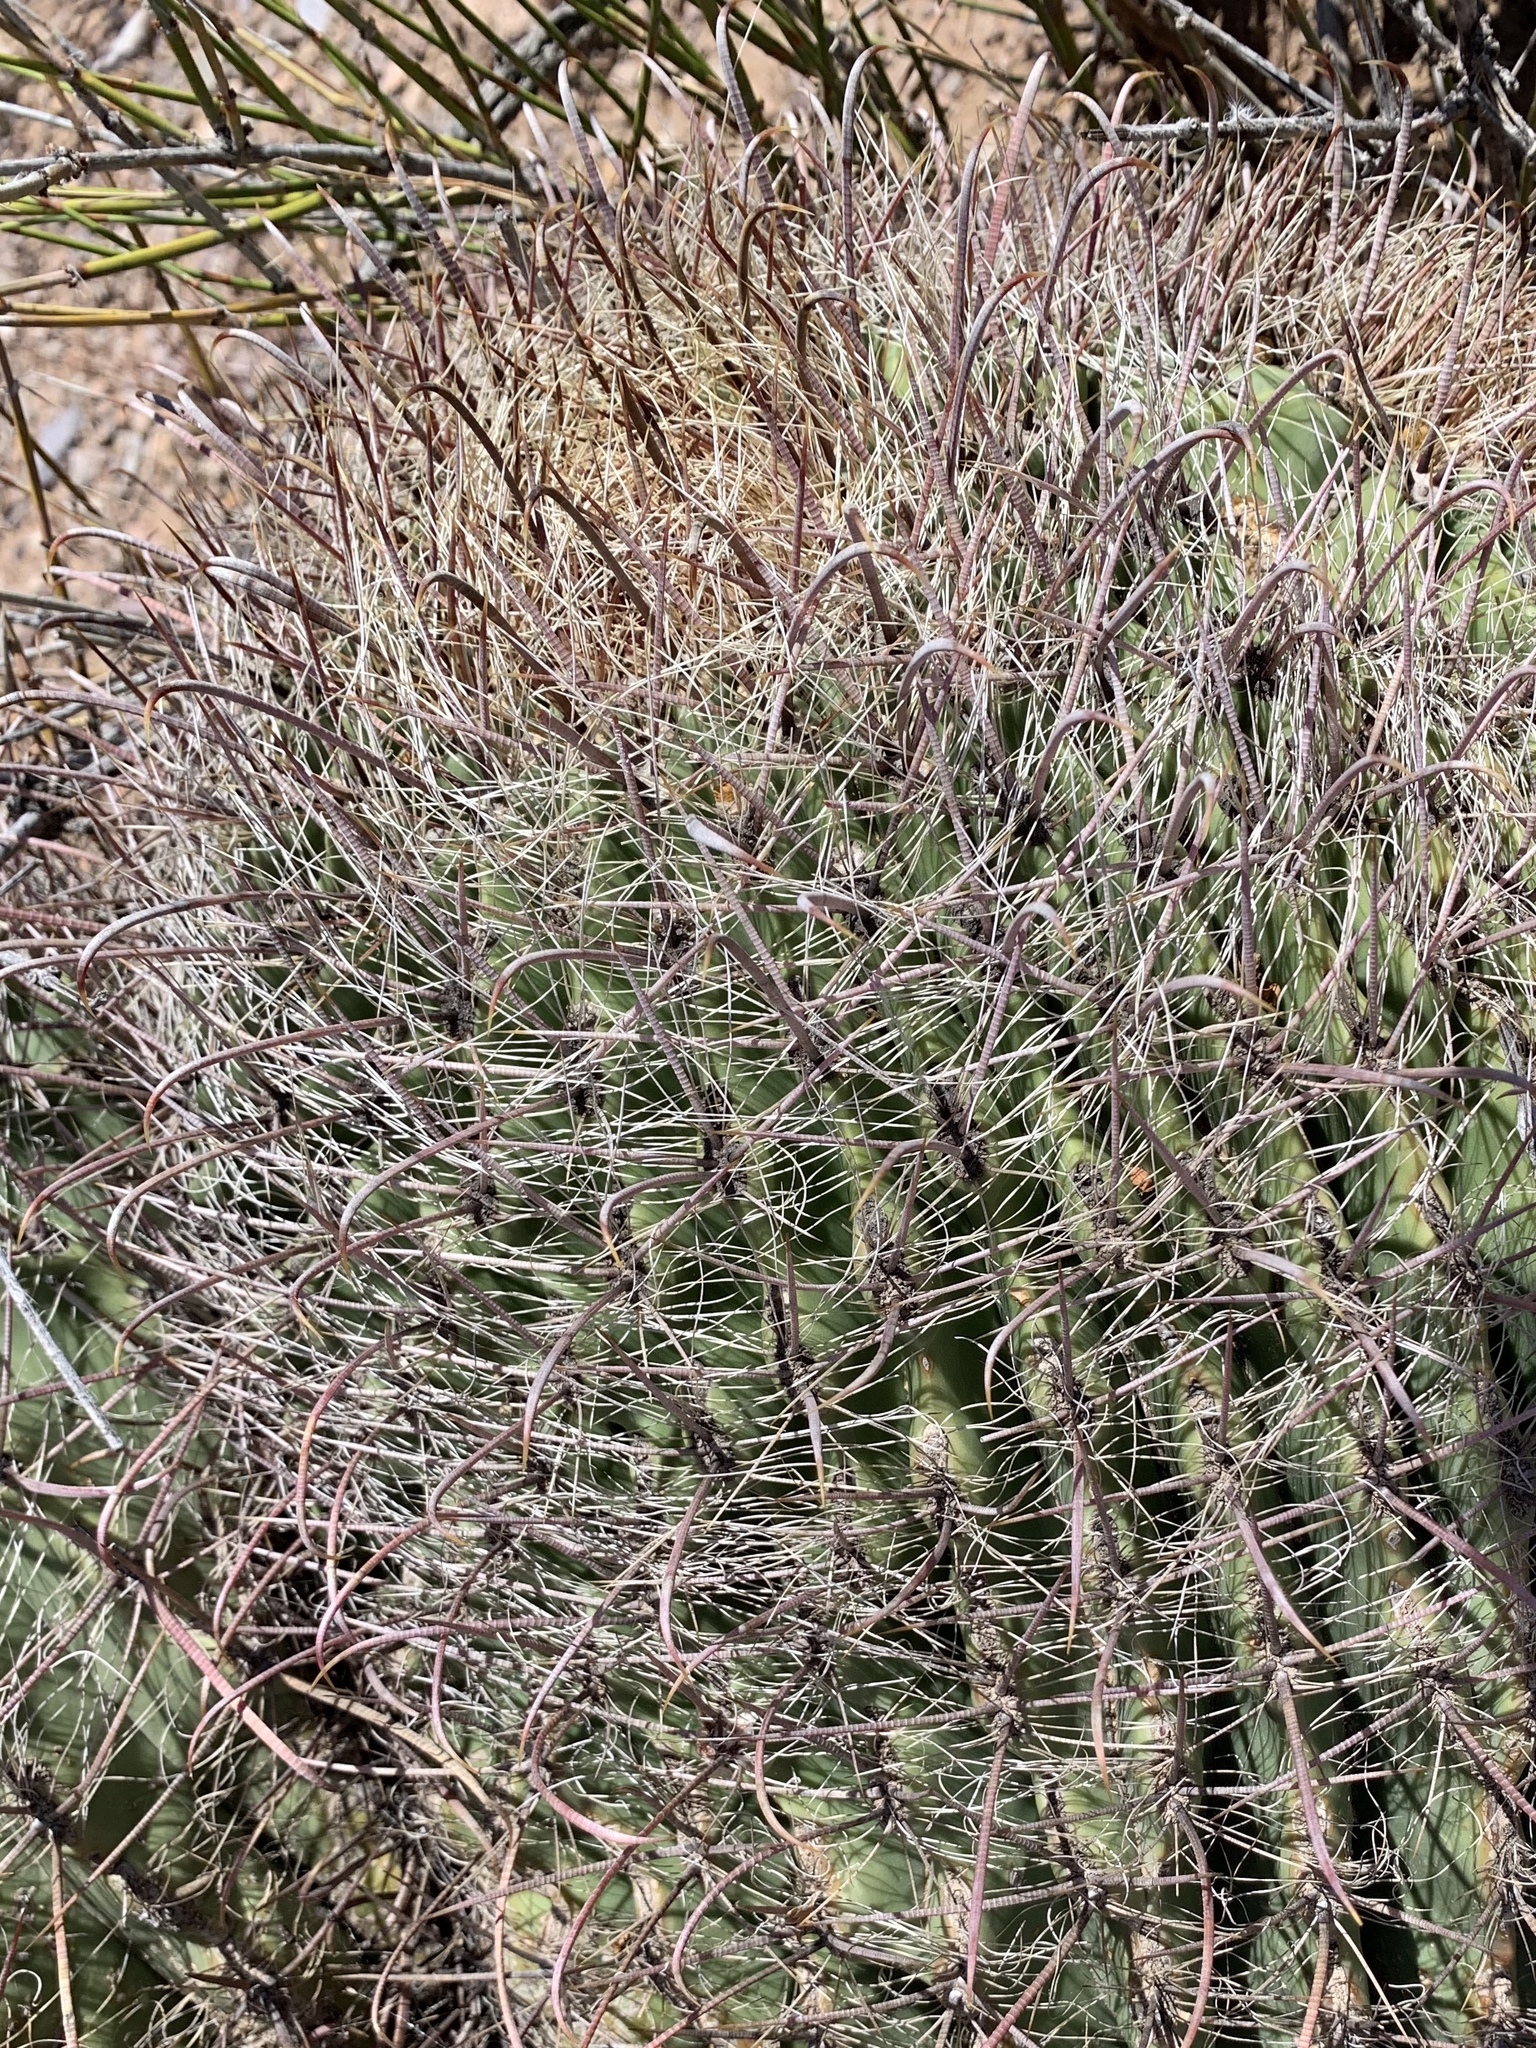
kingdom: Plantae
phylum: Tracheophyta
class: Magnoliopsida
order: Caryophyllales
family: Cactaceae
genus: Ferocactus
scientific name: Ferocactus wislizeni
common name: Candy barrel cactus
